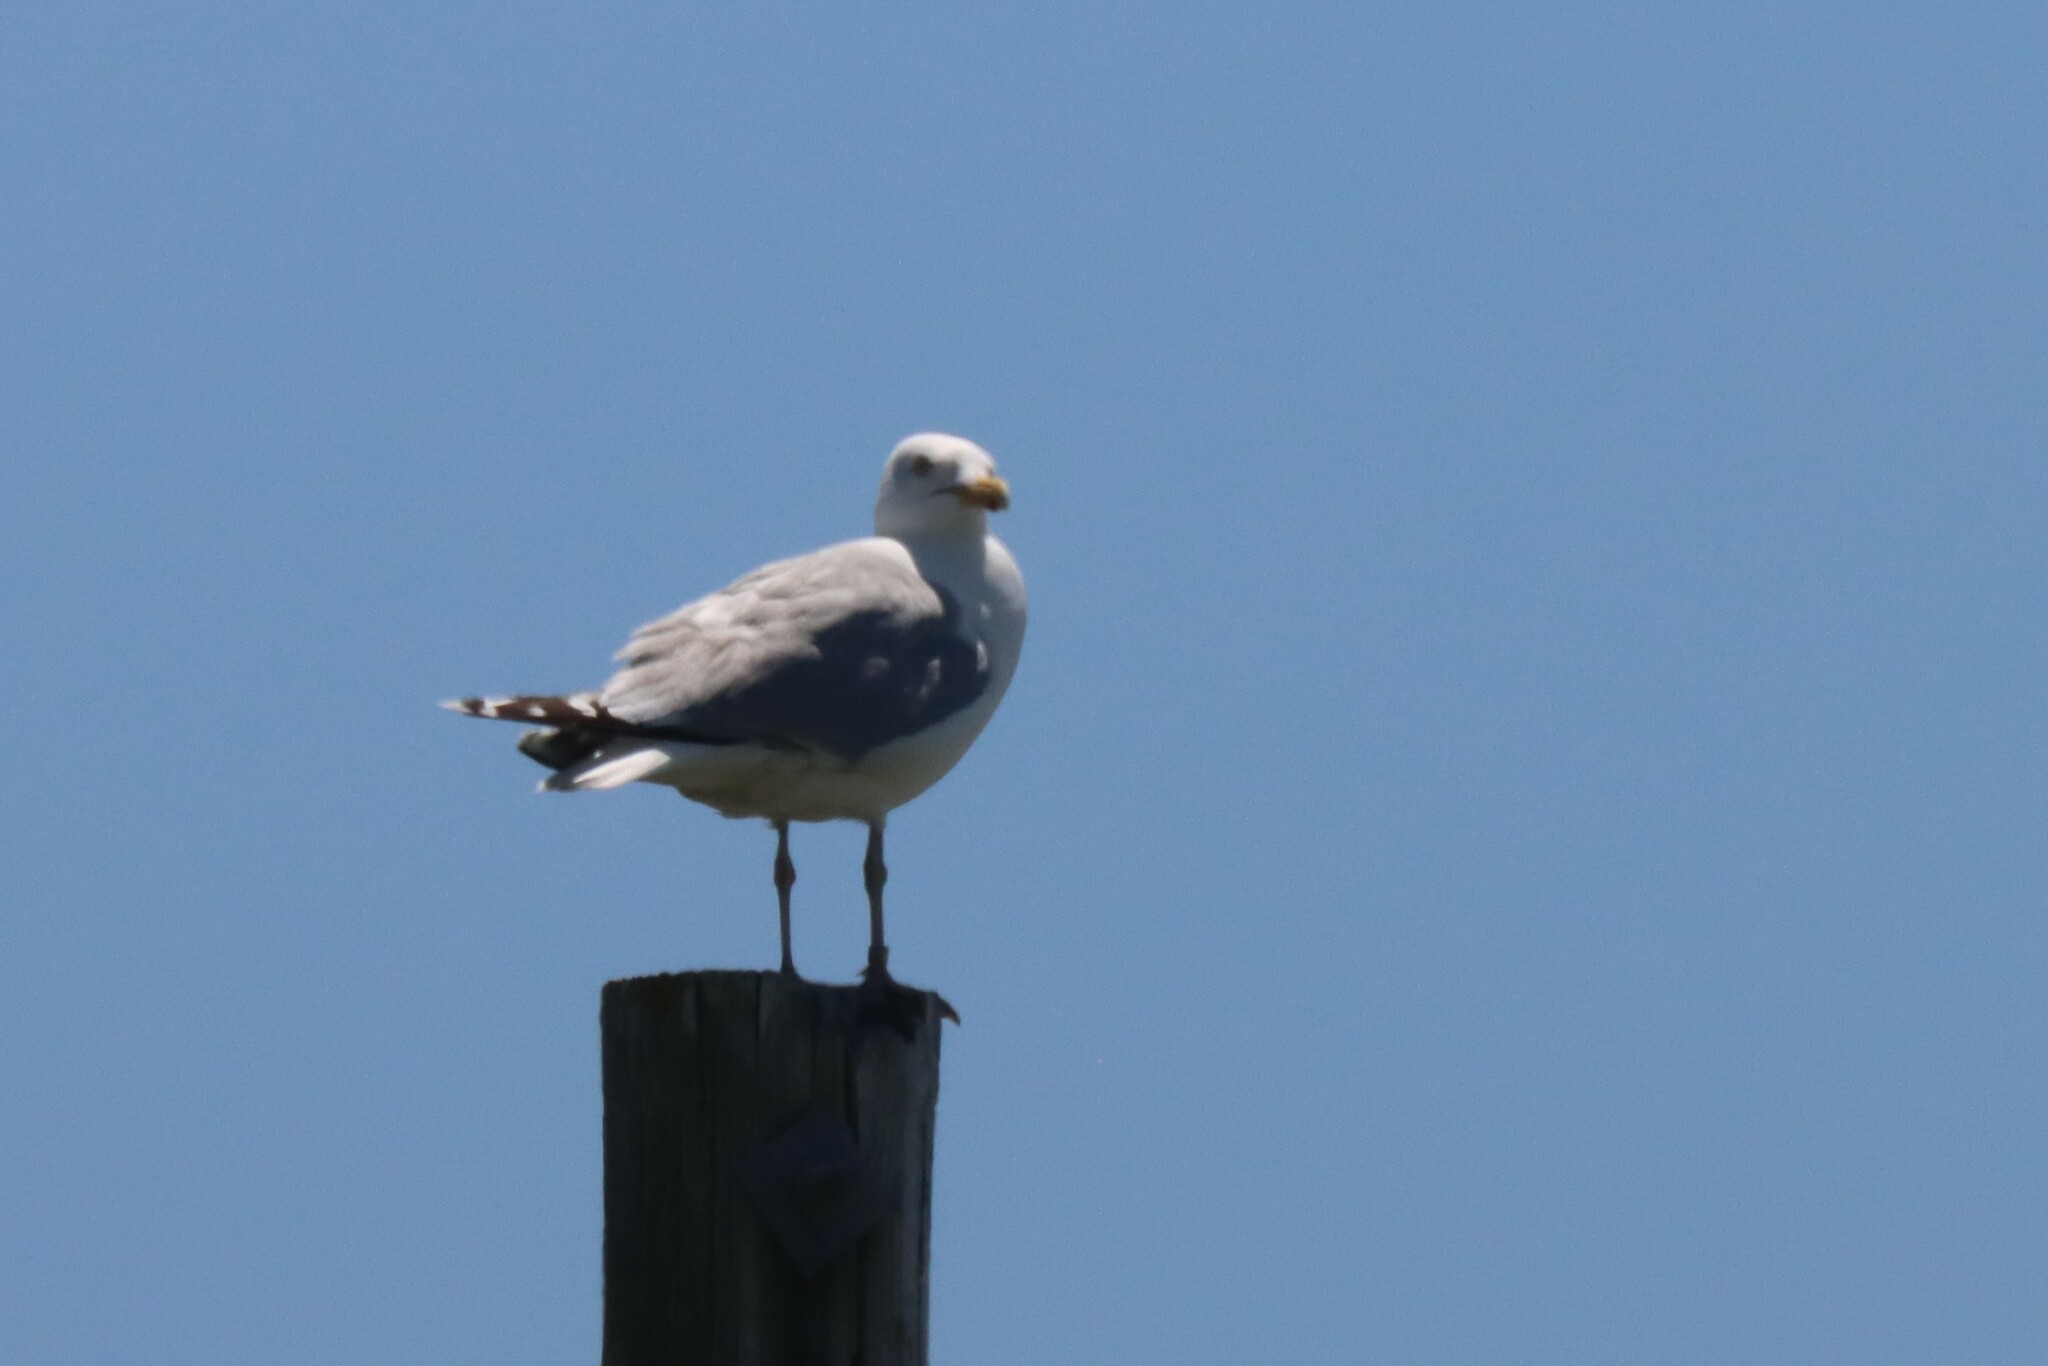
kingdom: Animalia
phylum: Chordata
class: Aves
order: Charadriiformes
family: Laridae
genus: Larus
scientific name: Larus argentatus
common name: Herring gull
